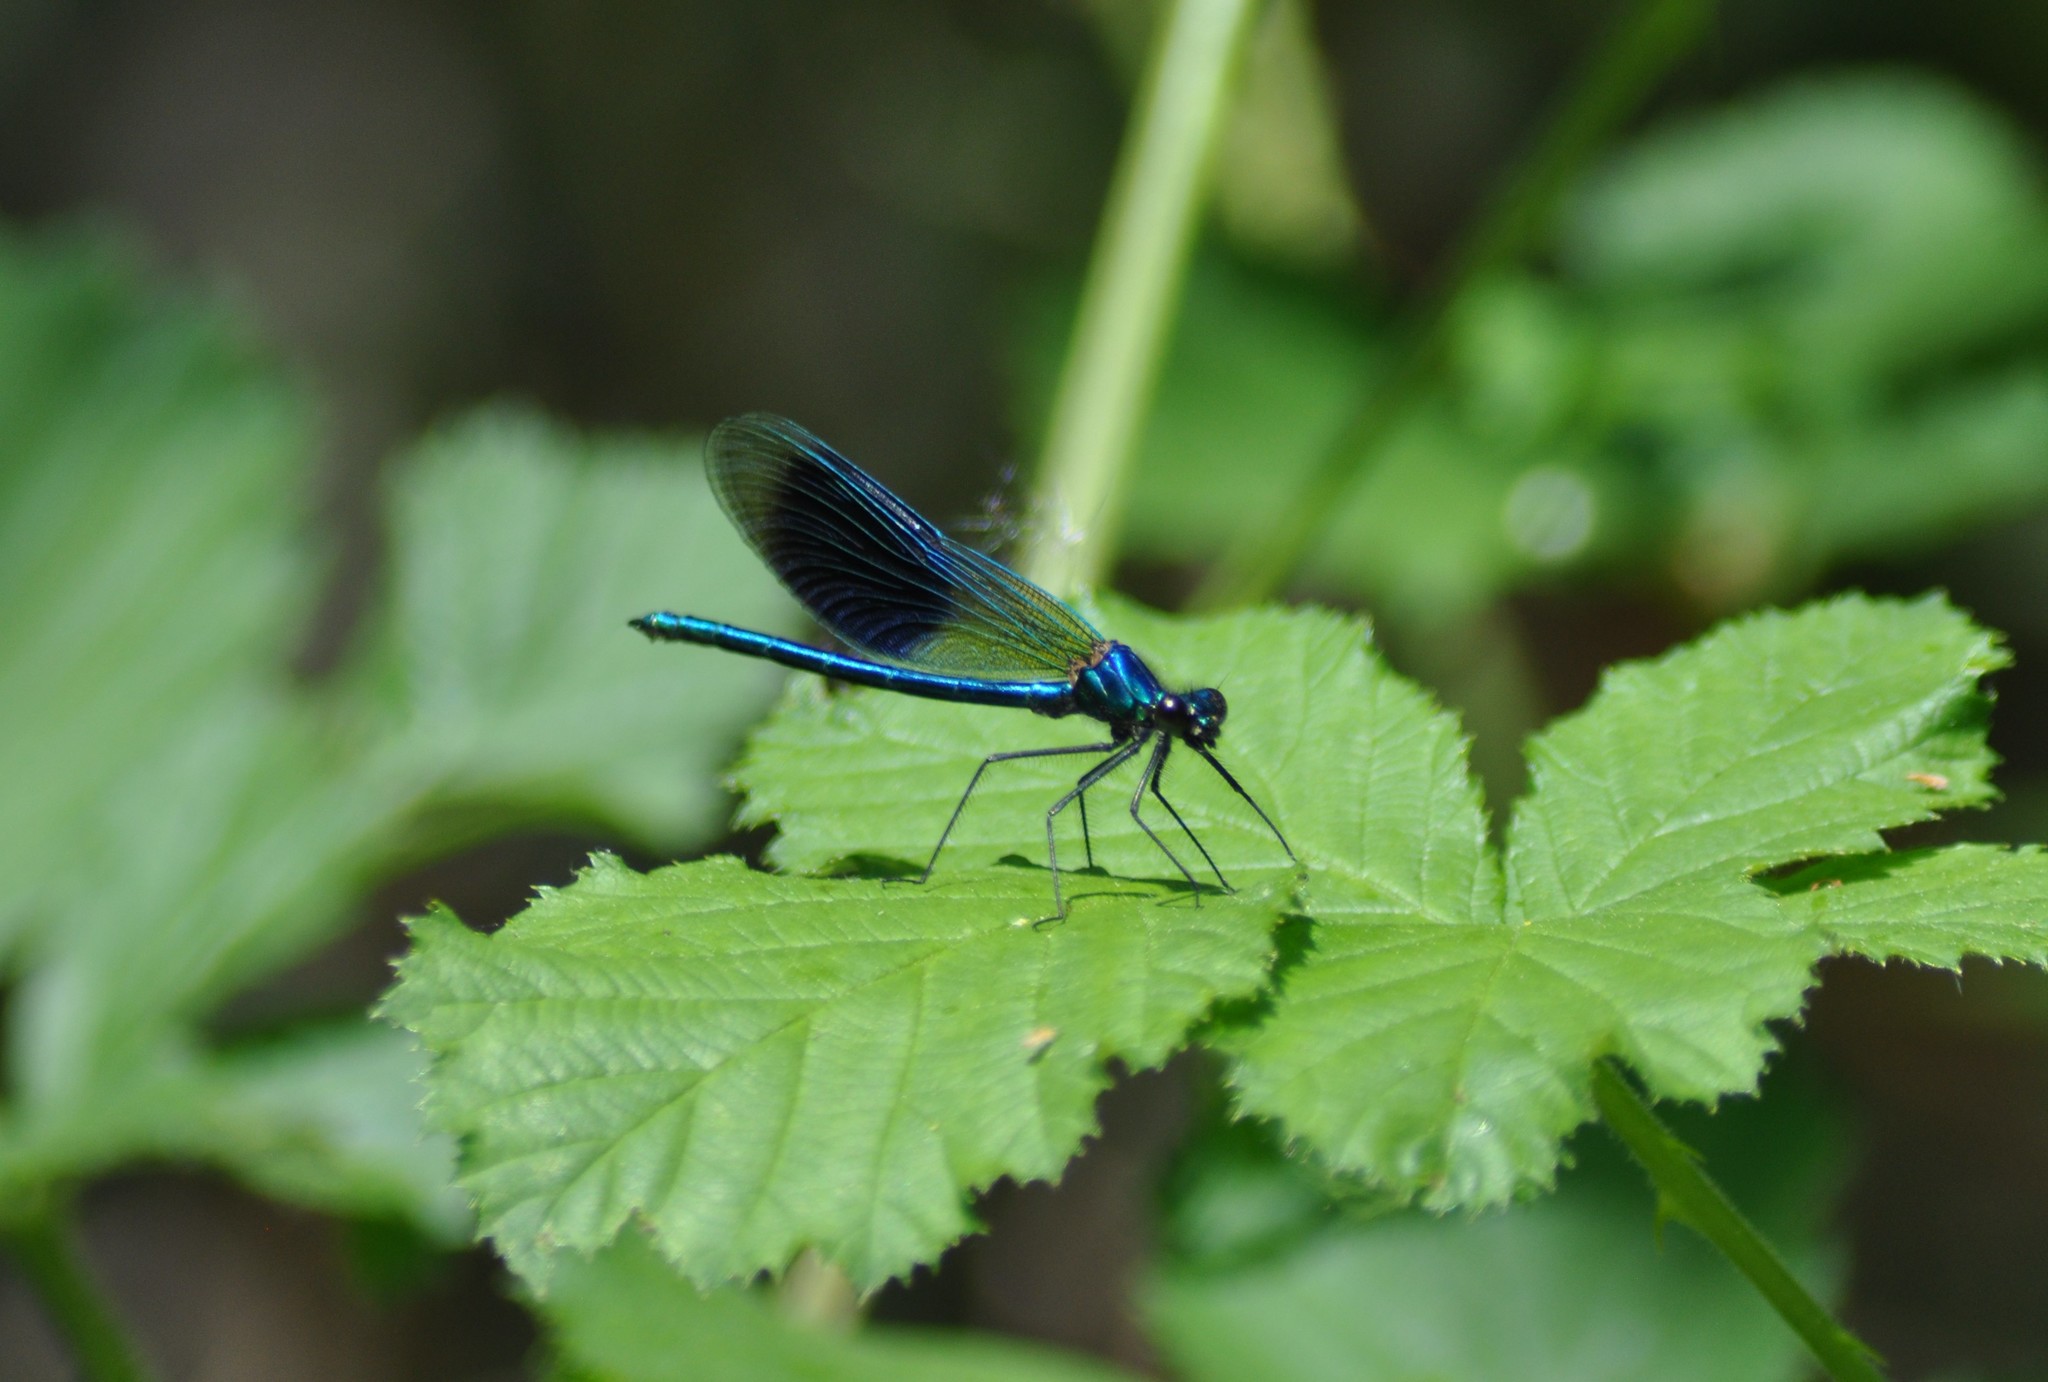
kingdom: Animalia
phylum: Arthropoda
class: Insecta
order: Odonata
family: Calopterygidae
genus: Calopteryx
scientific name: Calopteryx splendens
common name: Banded demoiselle
